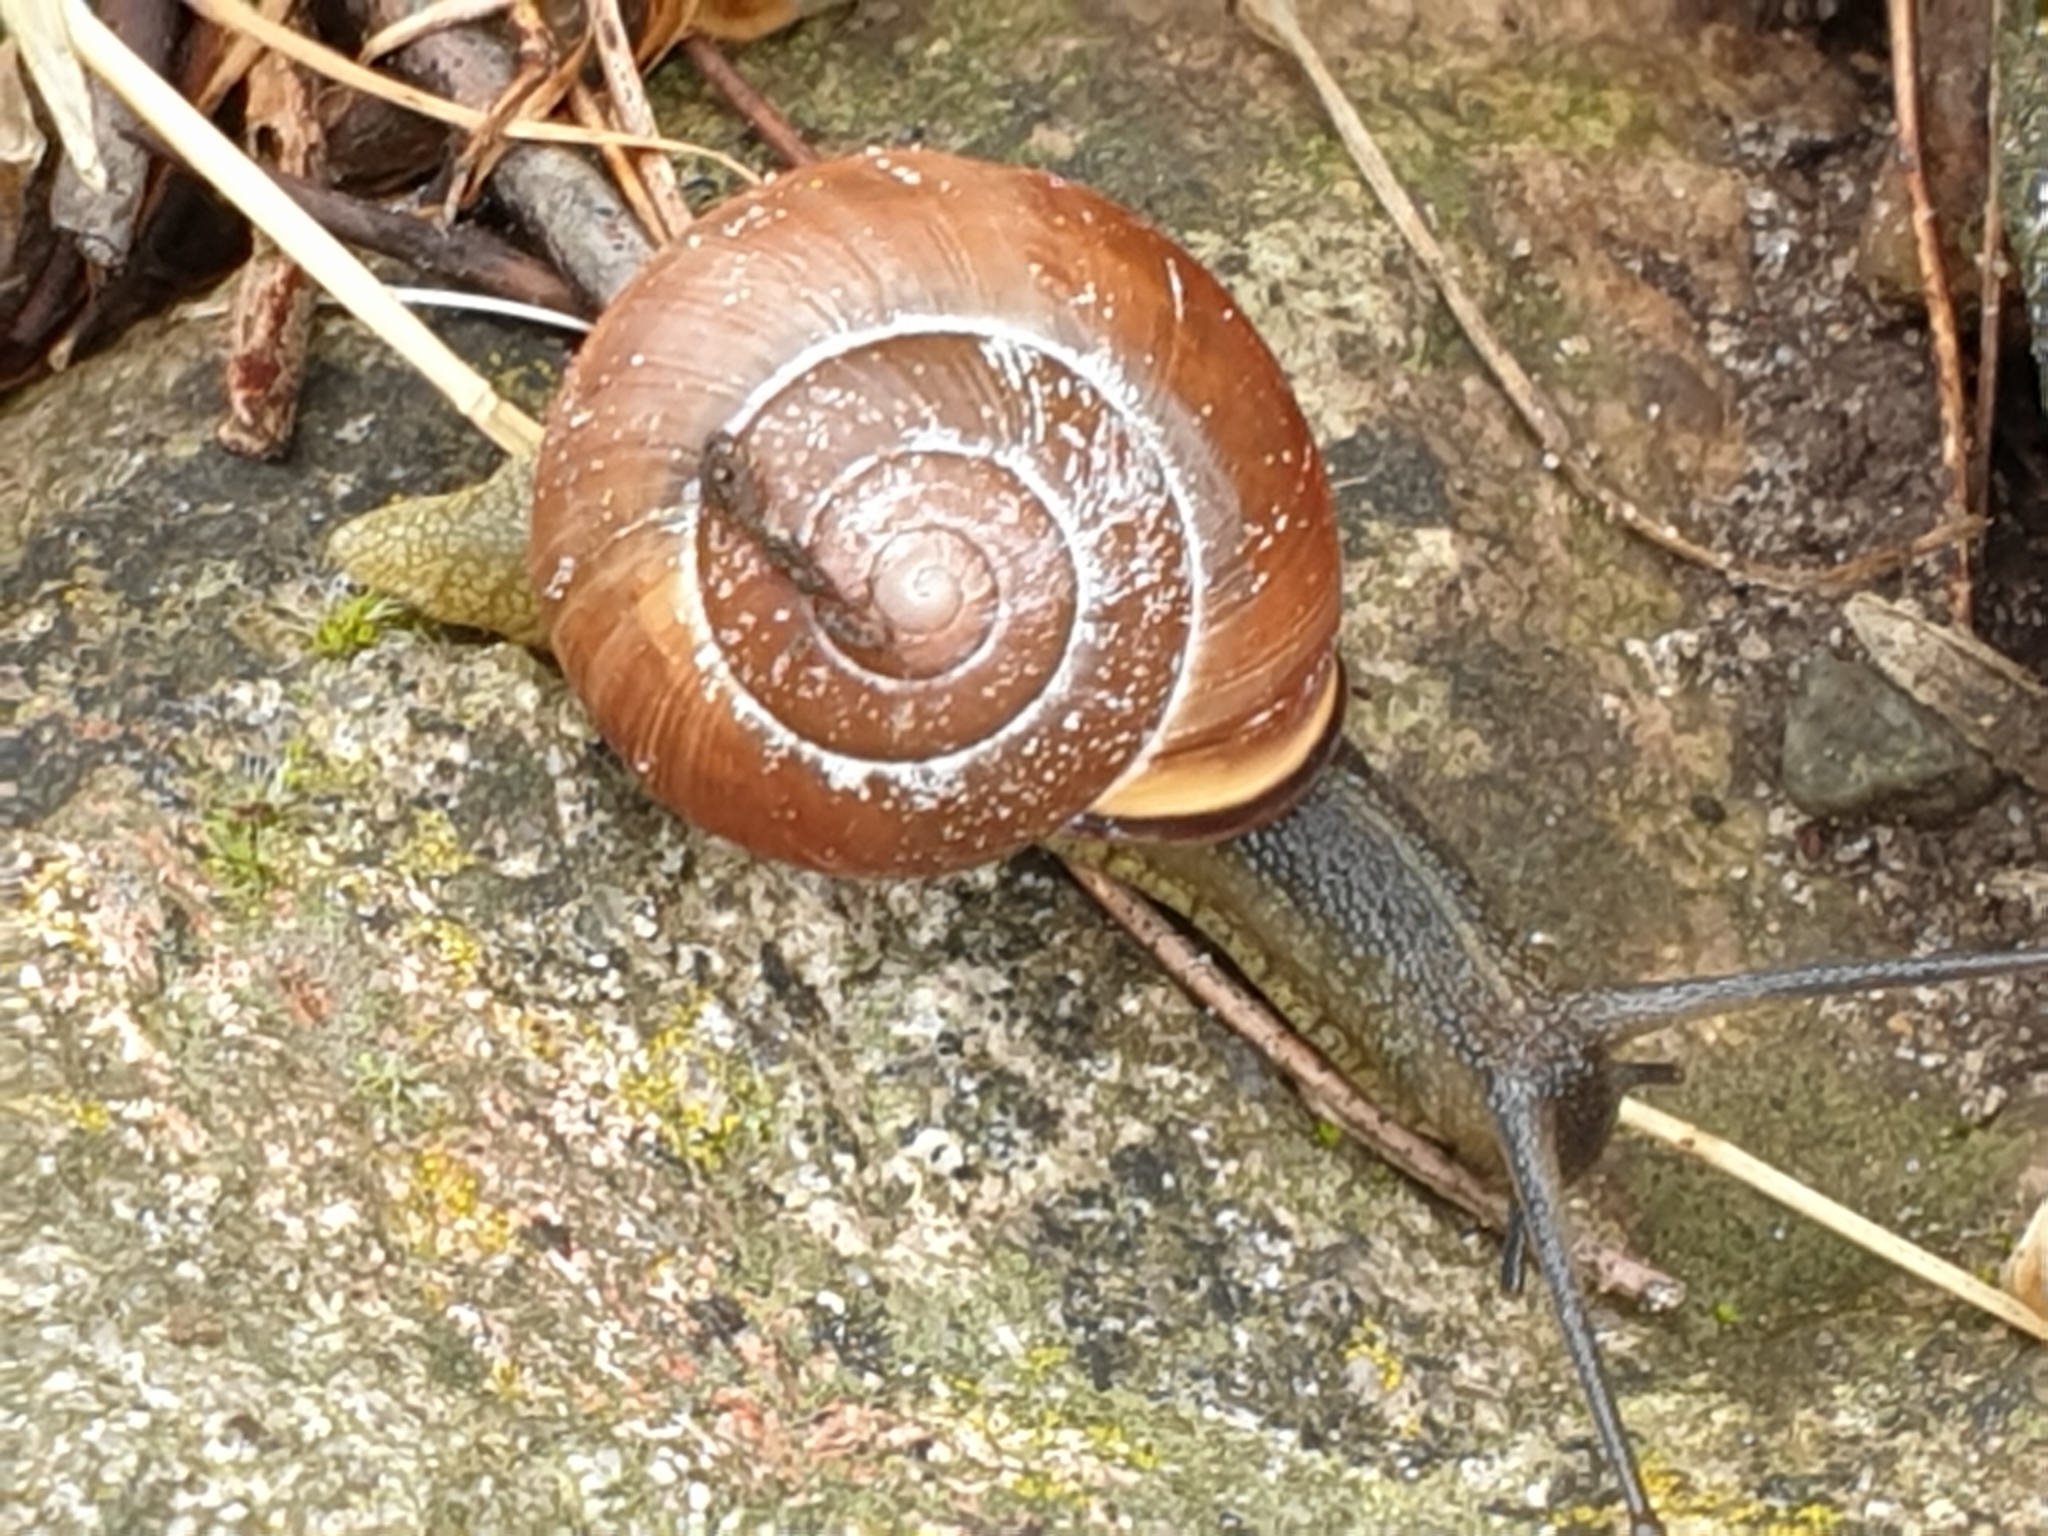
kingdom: Animalia
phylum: Mollusca
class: Gastropoda
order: Stylommatophora
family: Helicidae
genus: Cepaea
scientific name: Cepaea nemoralis
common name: Grovesnail
